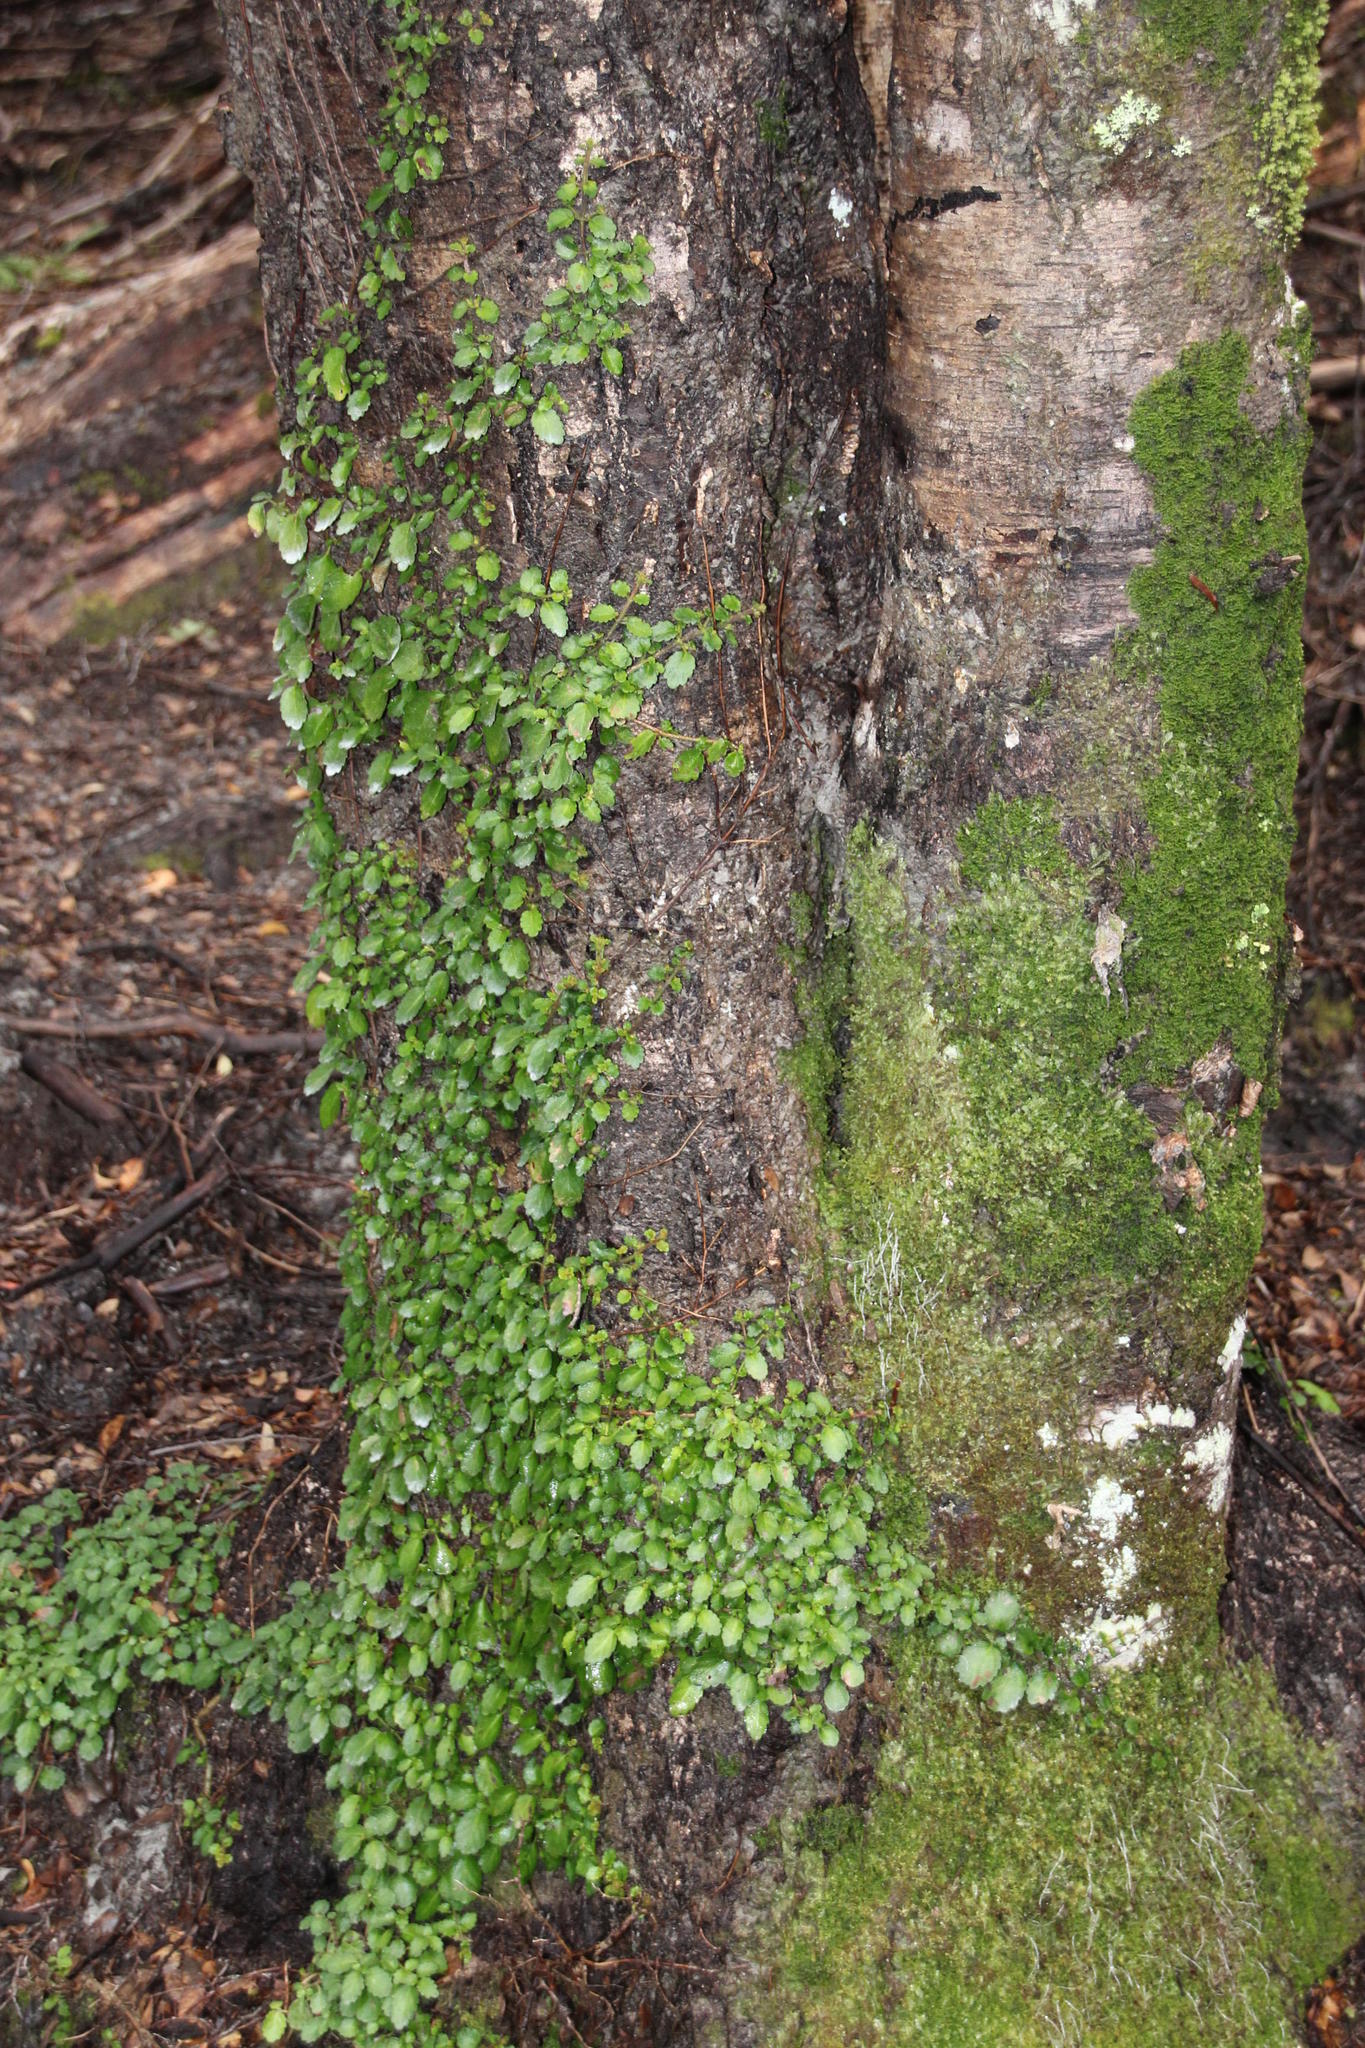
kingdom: Plantae
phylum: Tracheophyta
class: Magnoliopsida
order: Lamiales
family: Gesneriaceae
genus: Asteranthera
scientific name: Asteranthera ovata
